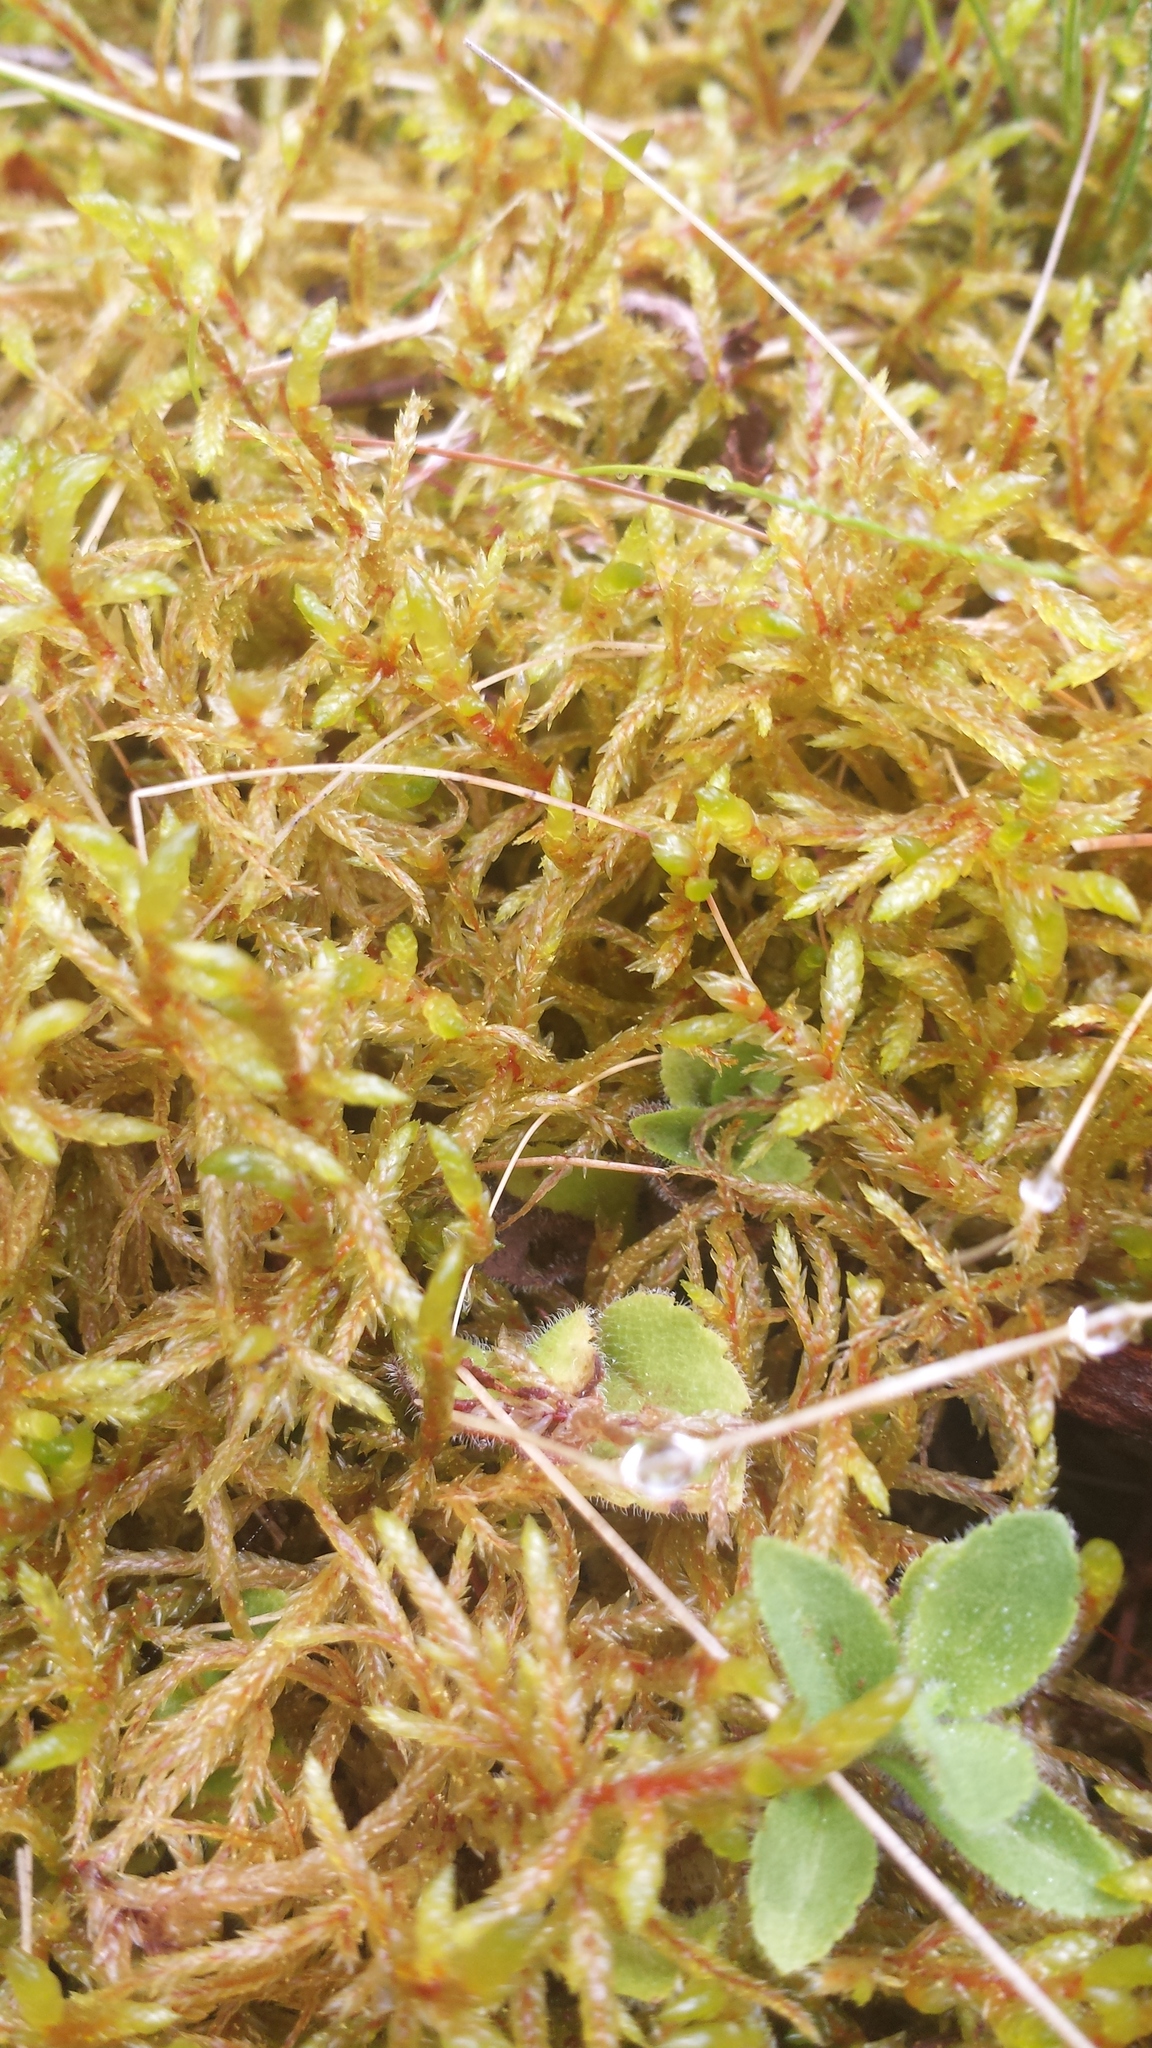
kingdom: Plantae
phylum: Bryophyta
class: Bryopsida
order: Hypnales
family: Hylocomiaceae
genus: Pleurozium
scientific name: Pleurozium schreberi
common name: Red-stemmed feather moss
